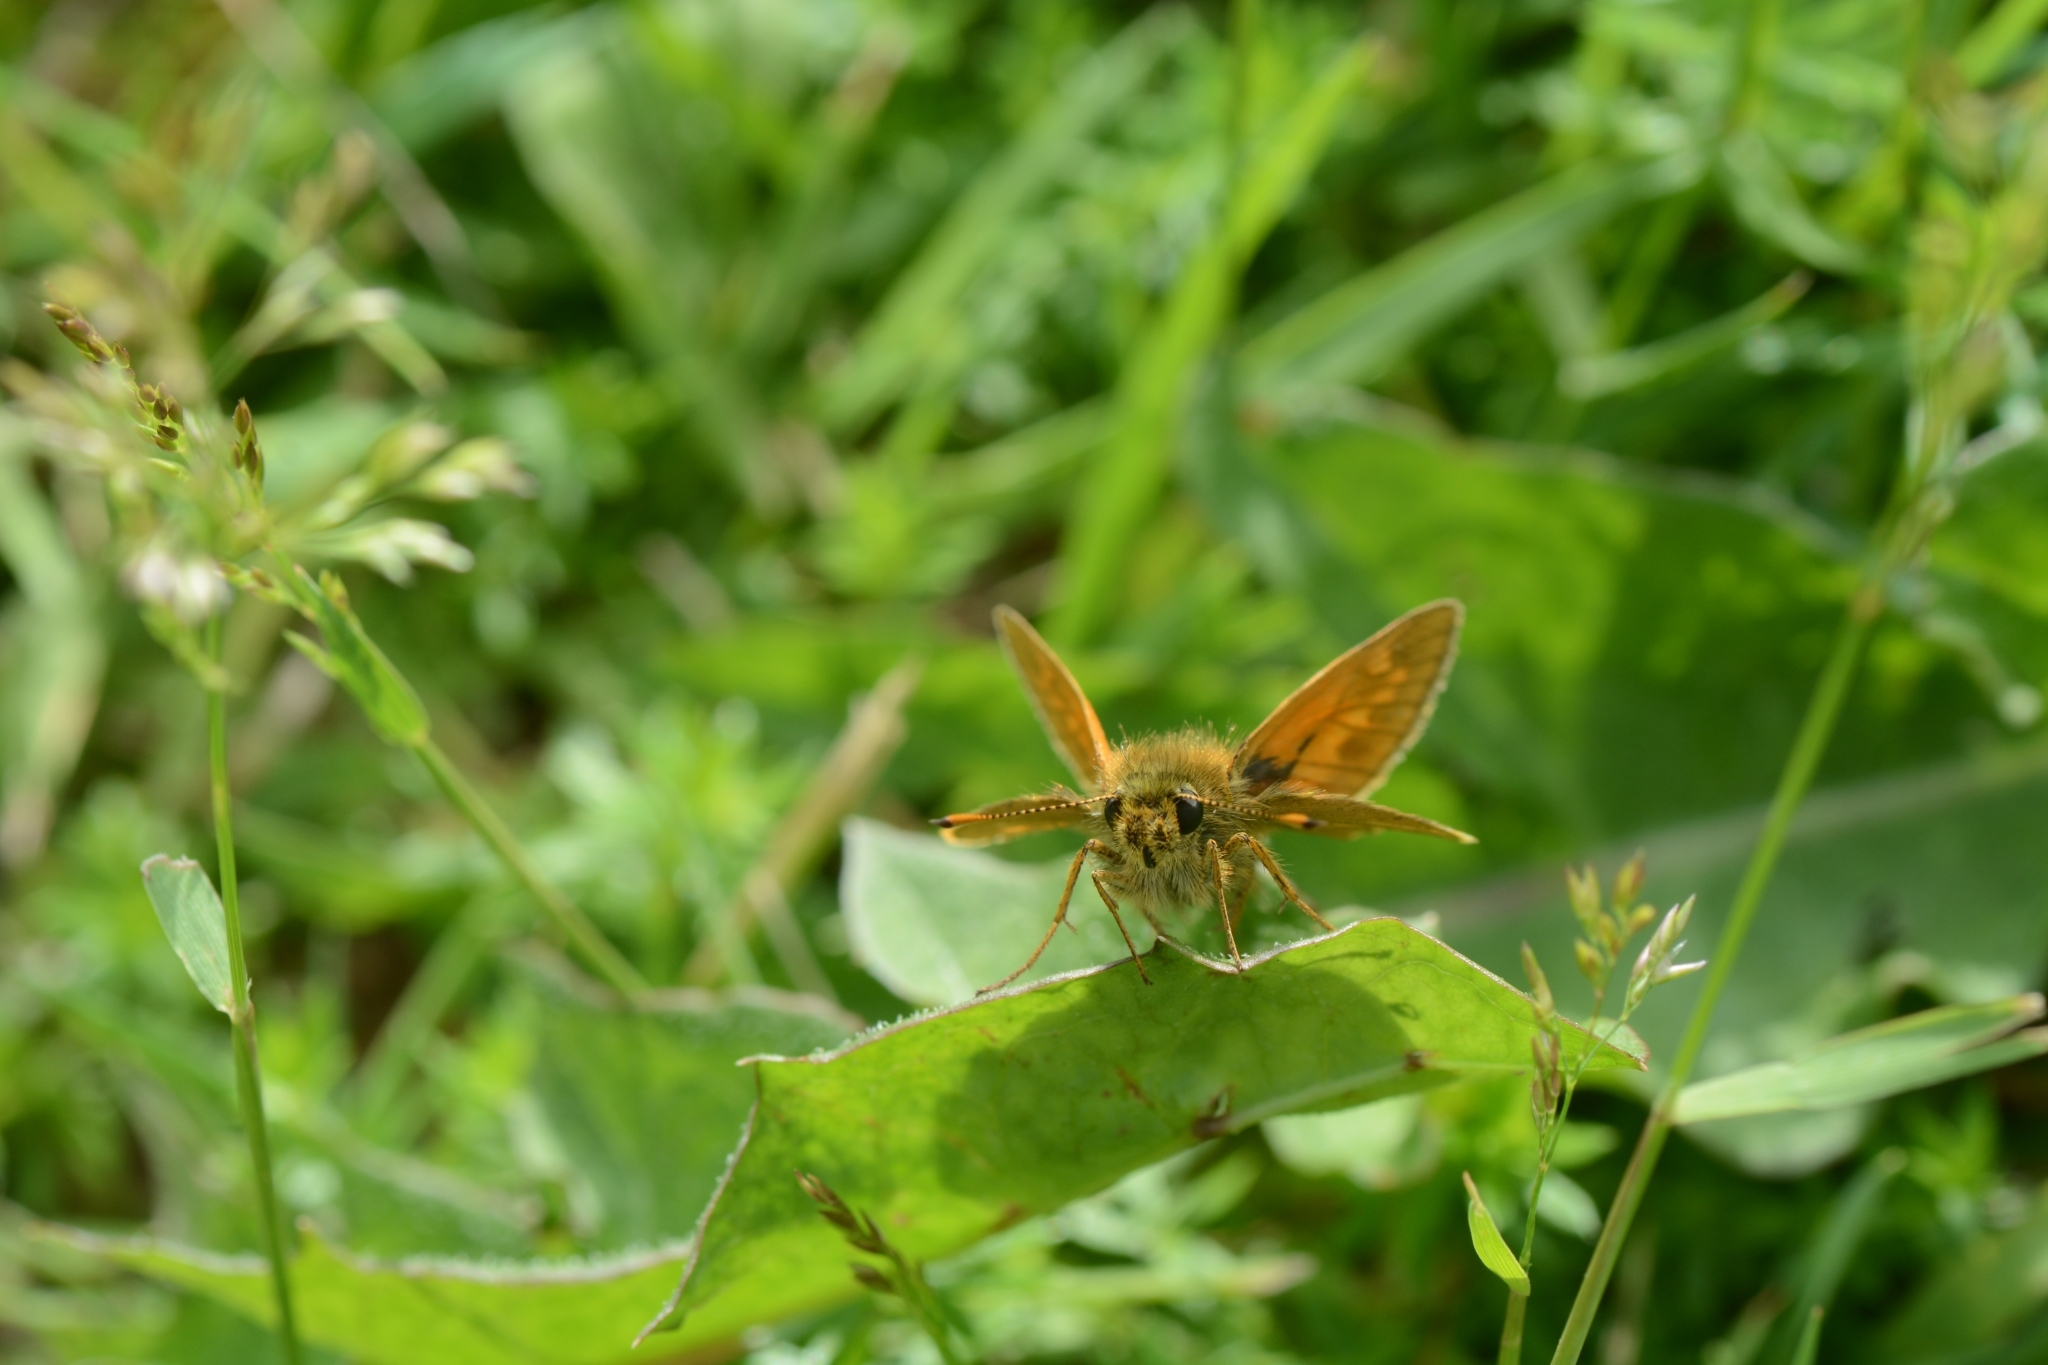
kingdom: Animalia
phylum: Arthropoda
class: Insecta
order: Lepidoptera
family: Hesperiidae
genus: Ochlodes
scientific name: Ochlodes venata
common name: Large skipper
